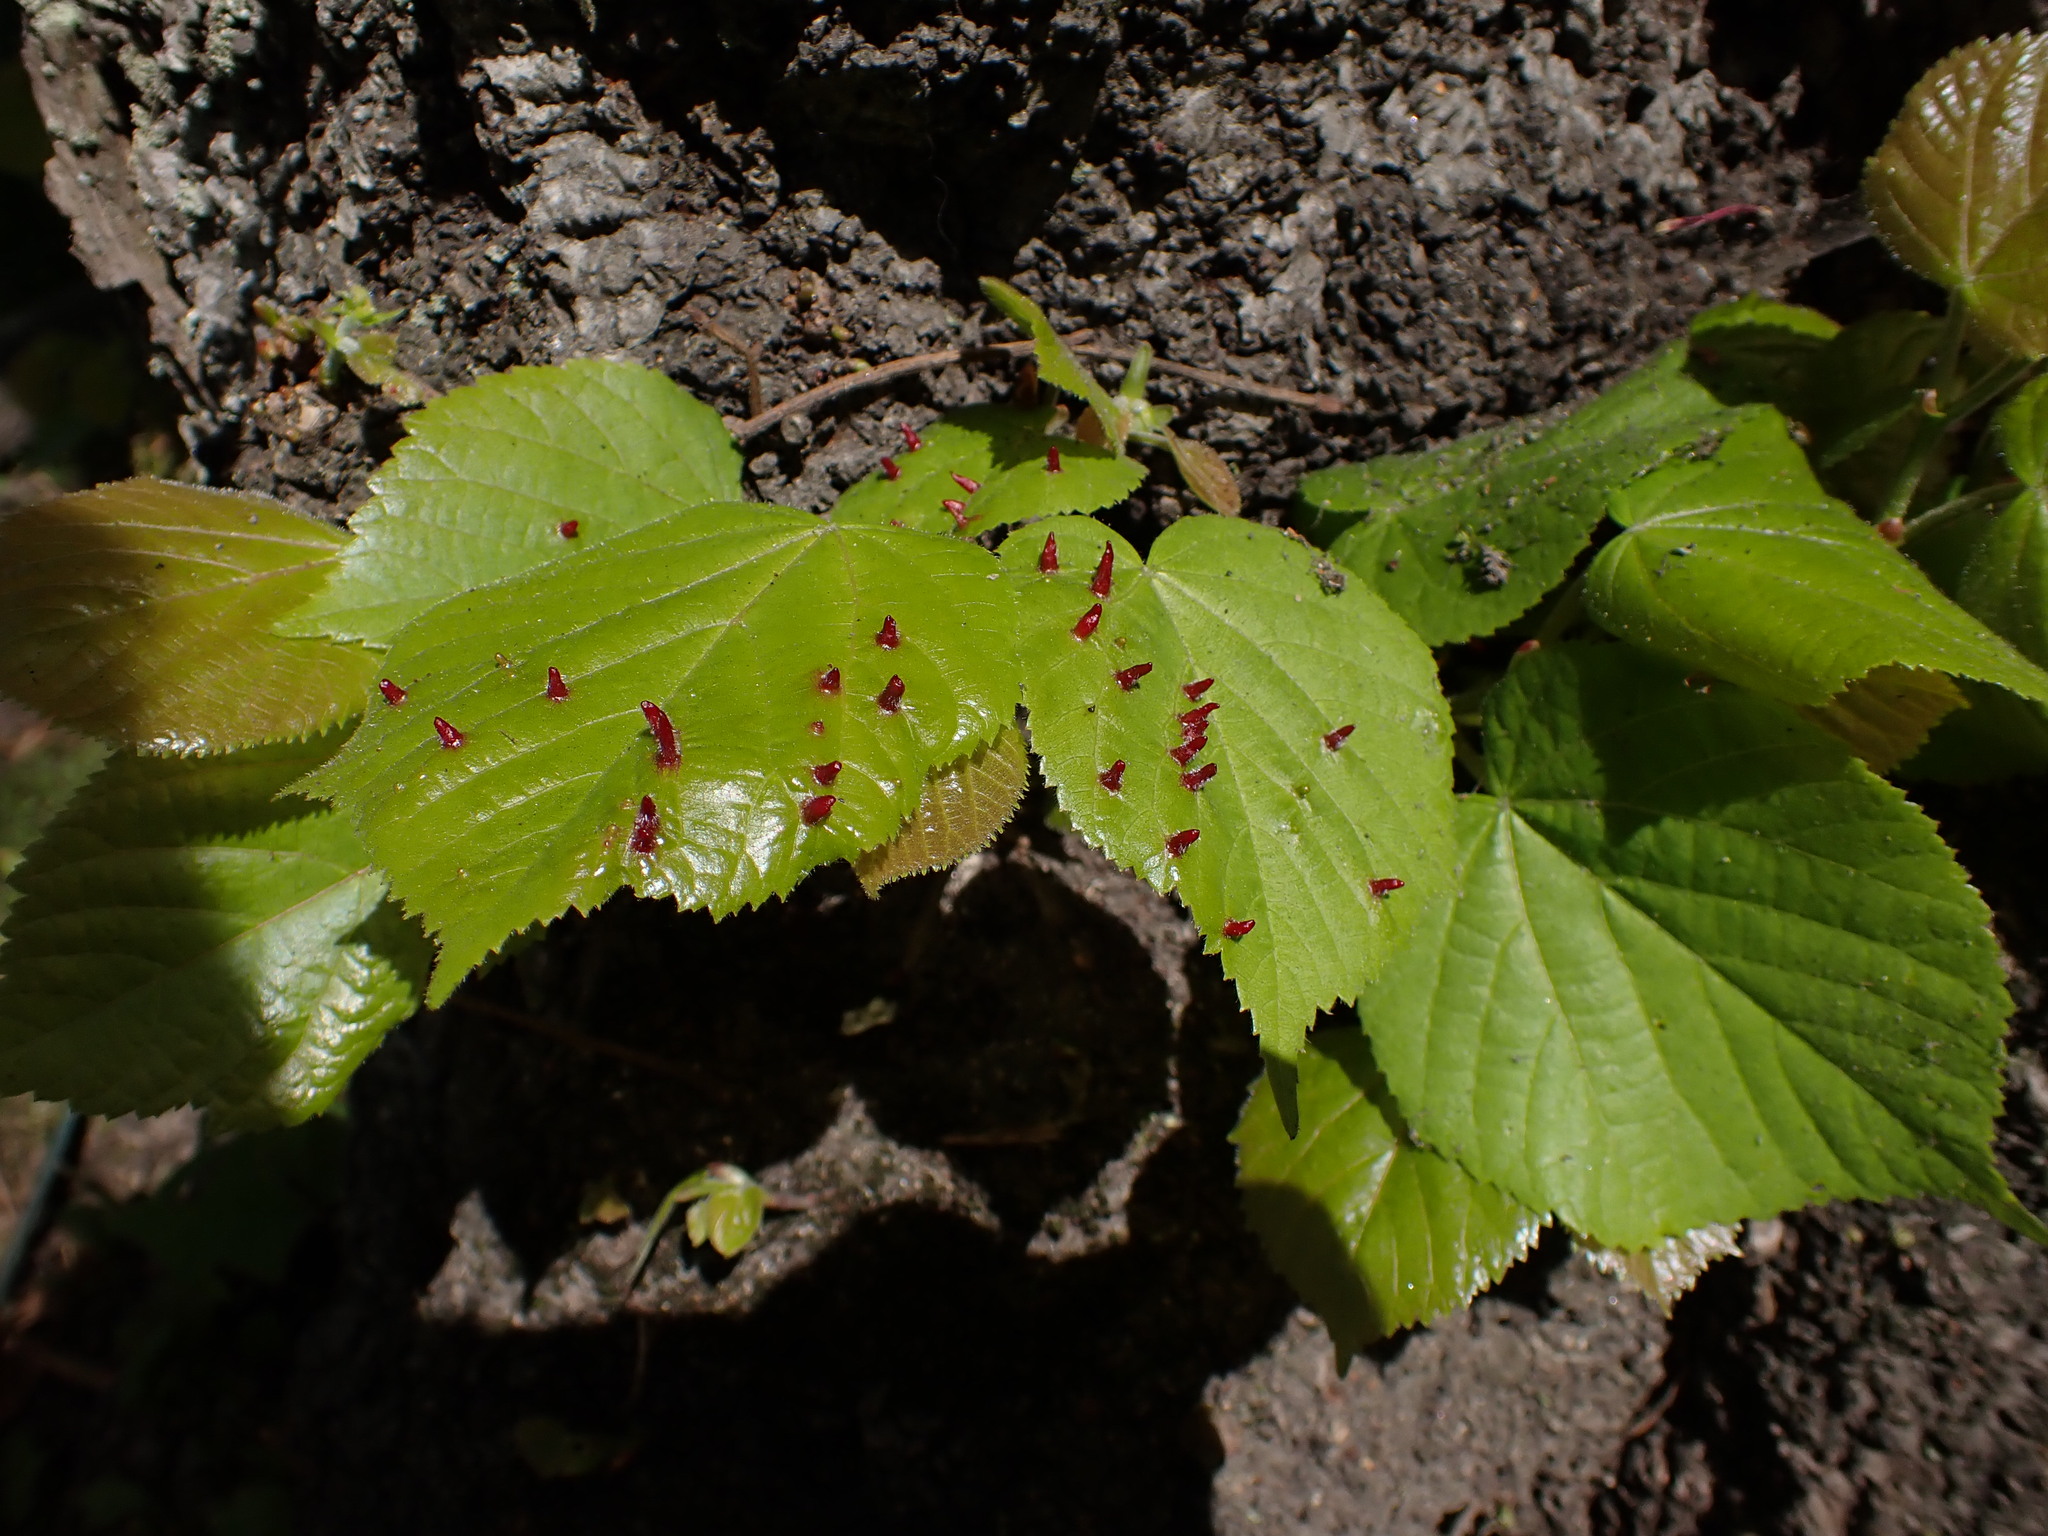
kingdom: Animalia
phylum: Arthropoda
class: Arachnida
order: Trombidiformes
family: Eriophyidae
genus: Eriophyes
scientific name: Eriophyes tiliae
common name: Red nail gall mite
